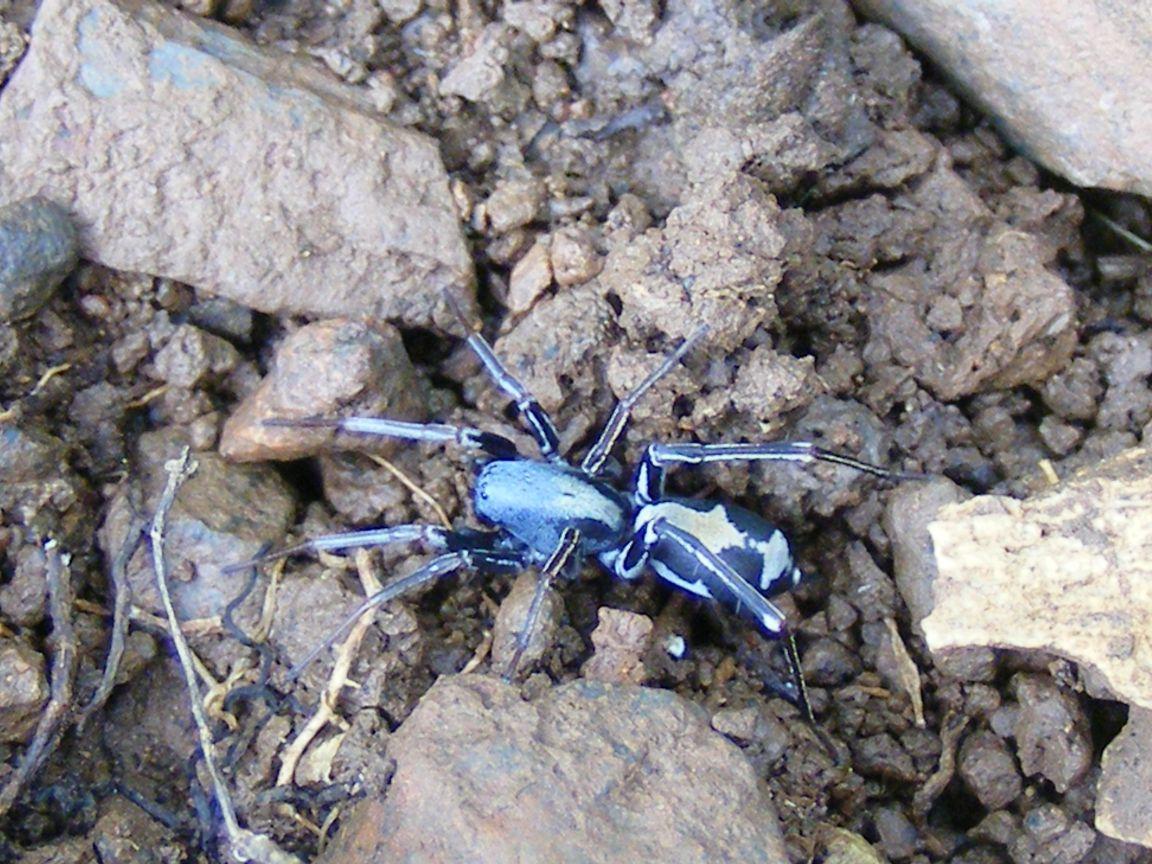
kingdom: Animalia
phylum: Arthropoda
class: Arachnida
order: Araneae
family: Corinnidae
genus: Merenius
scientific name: Merenius alberti
